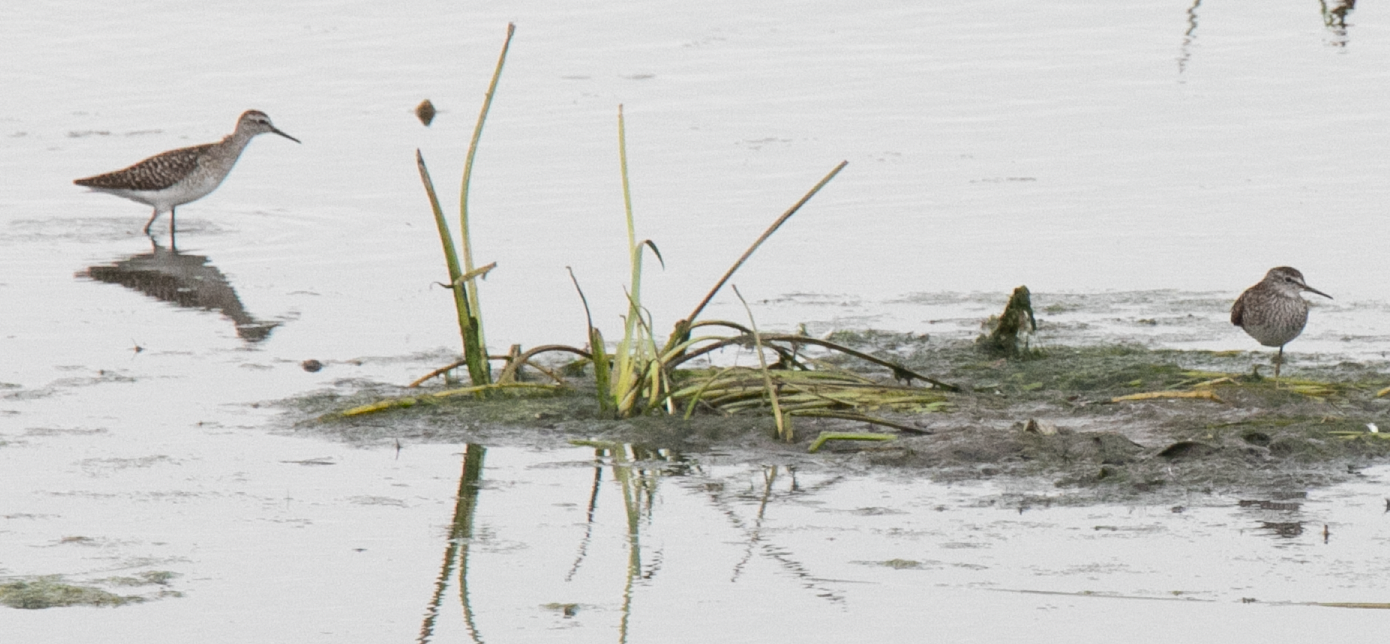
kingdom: Animalia
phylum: Chordata
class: Aves
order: Charadriiformes
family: Scolopacidae
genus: Tringa
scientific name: Tringa glareola
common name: Wood sandpiper
